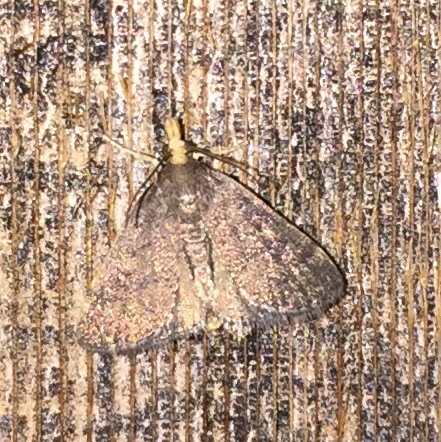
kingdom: Animalia
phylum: Arthropoda
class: Insecta
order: Lepidoptera
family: Crambidae
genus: Pyrausta
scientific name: Pyrausta merrickalis
